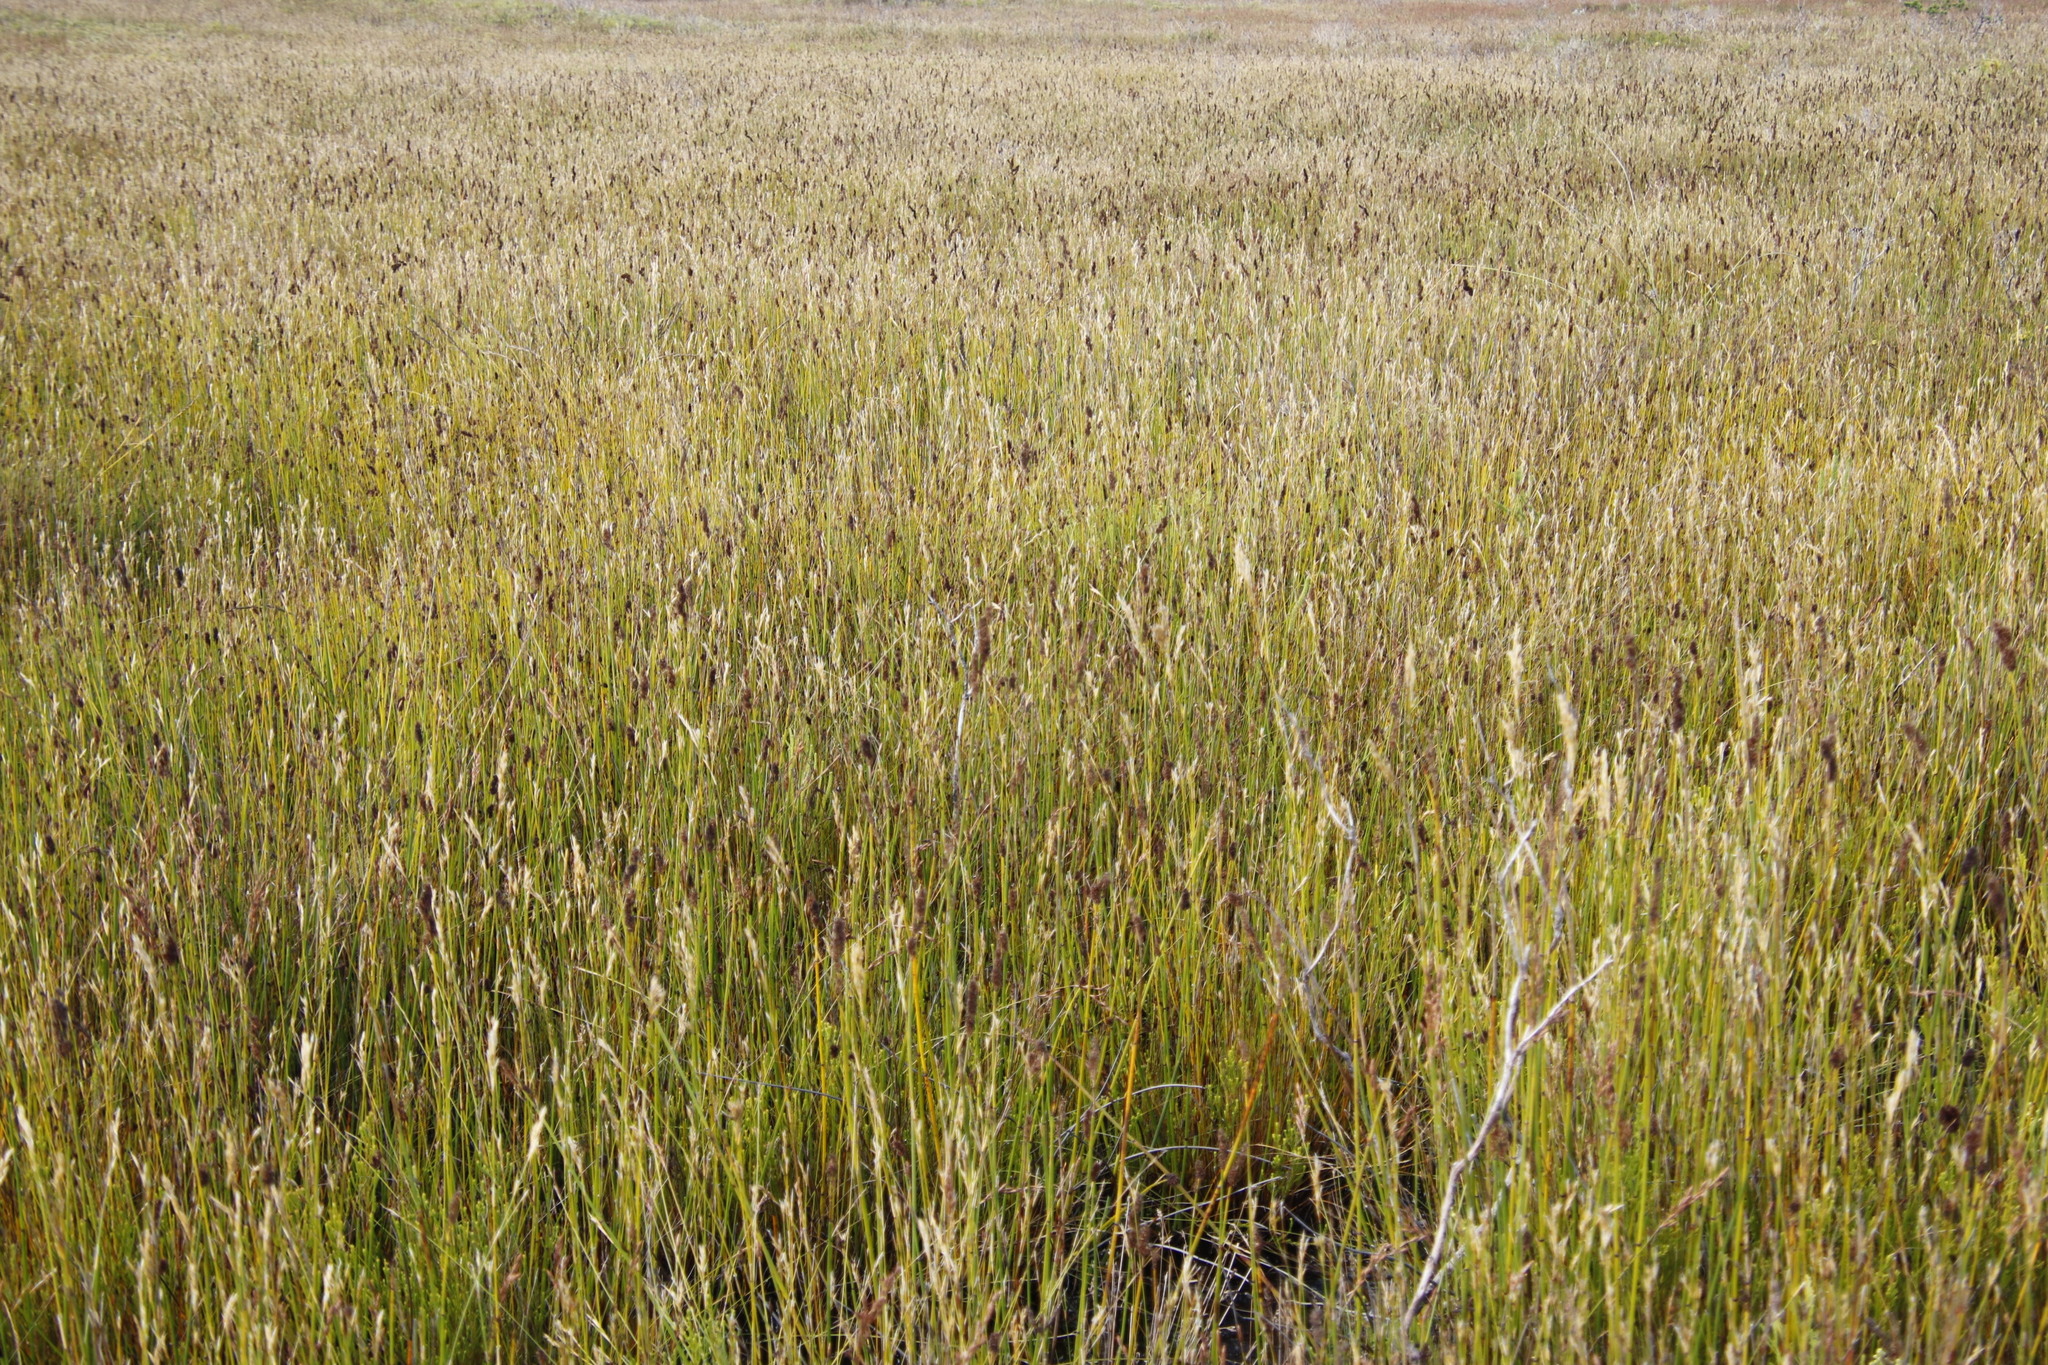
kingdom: Plantae
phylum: Tracheophyta
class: Liliopsida
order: Poales
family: Restionaceae
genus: Elegia
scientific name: Elegia cuspidata
